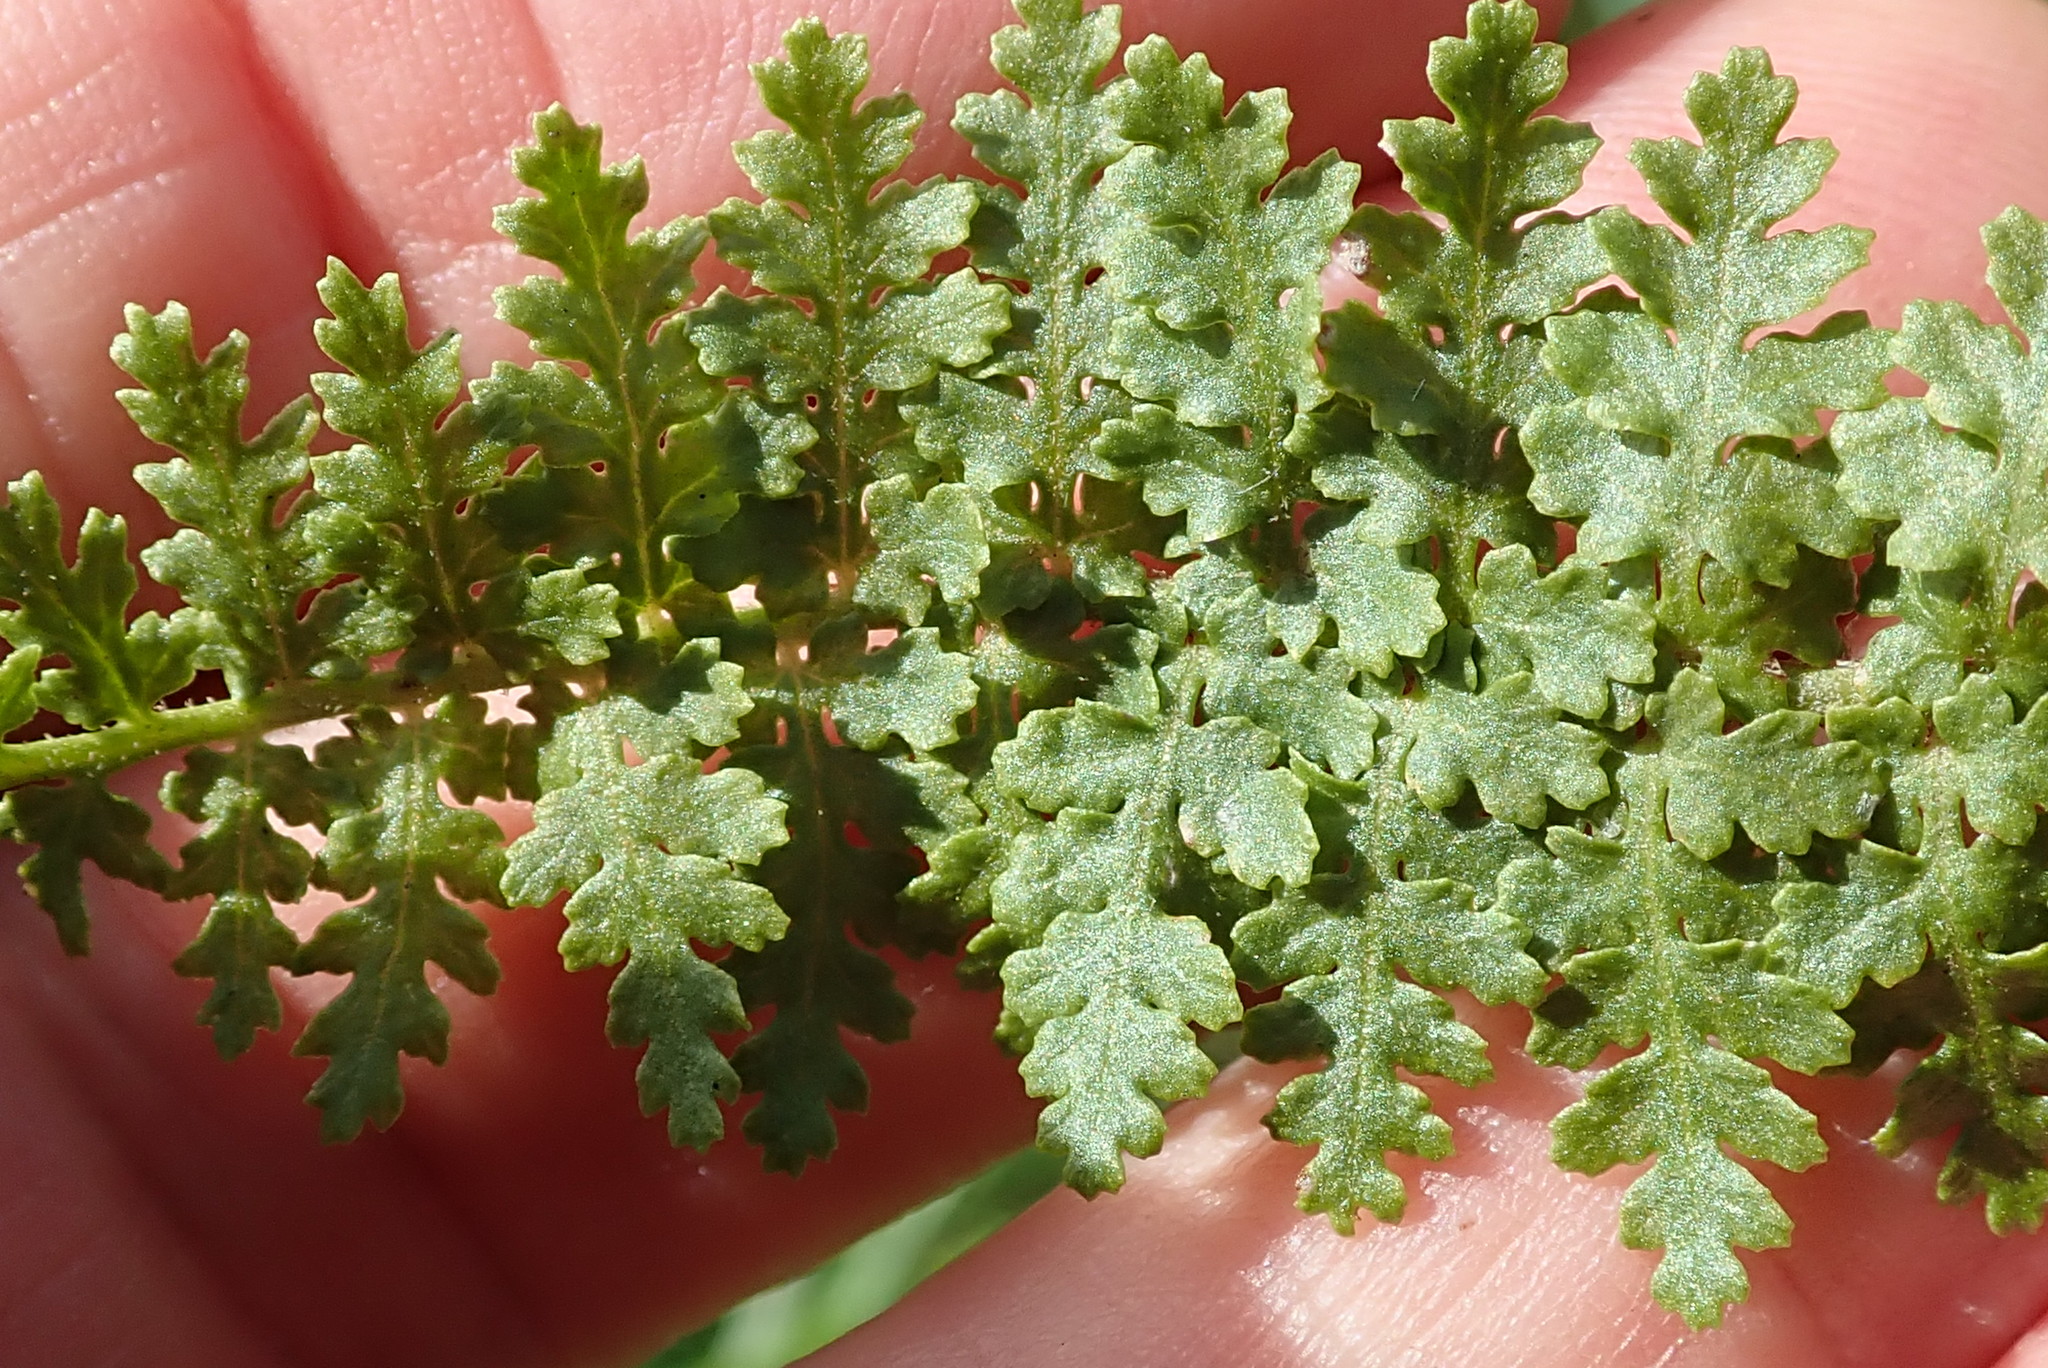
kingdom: Plantae
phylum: Tracheophyta
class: Polypodiopsida
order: Schizaeales
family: Anemiaceae
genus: Anemia
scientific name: Anemia vestita
